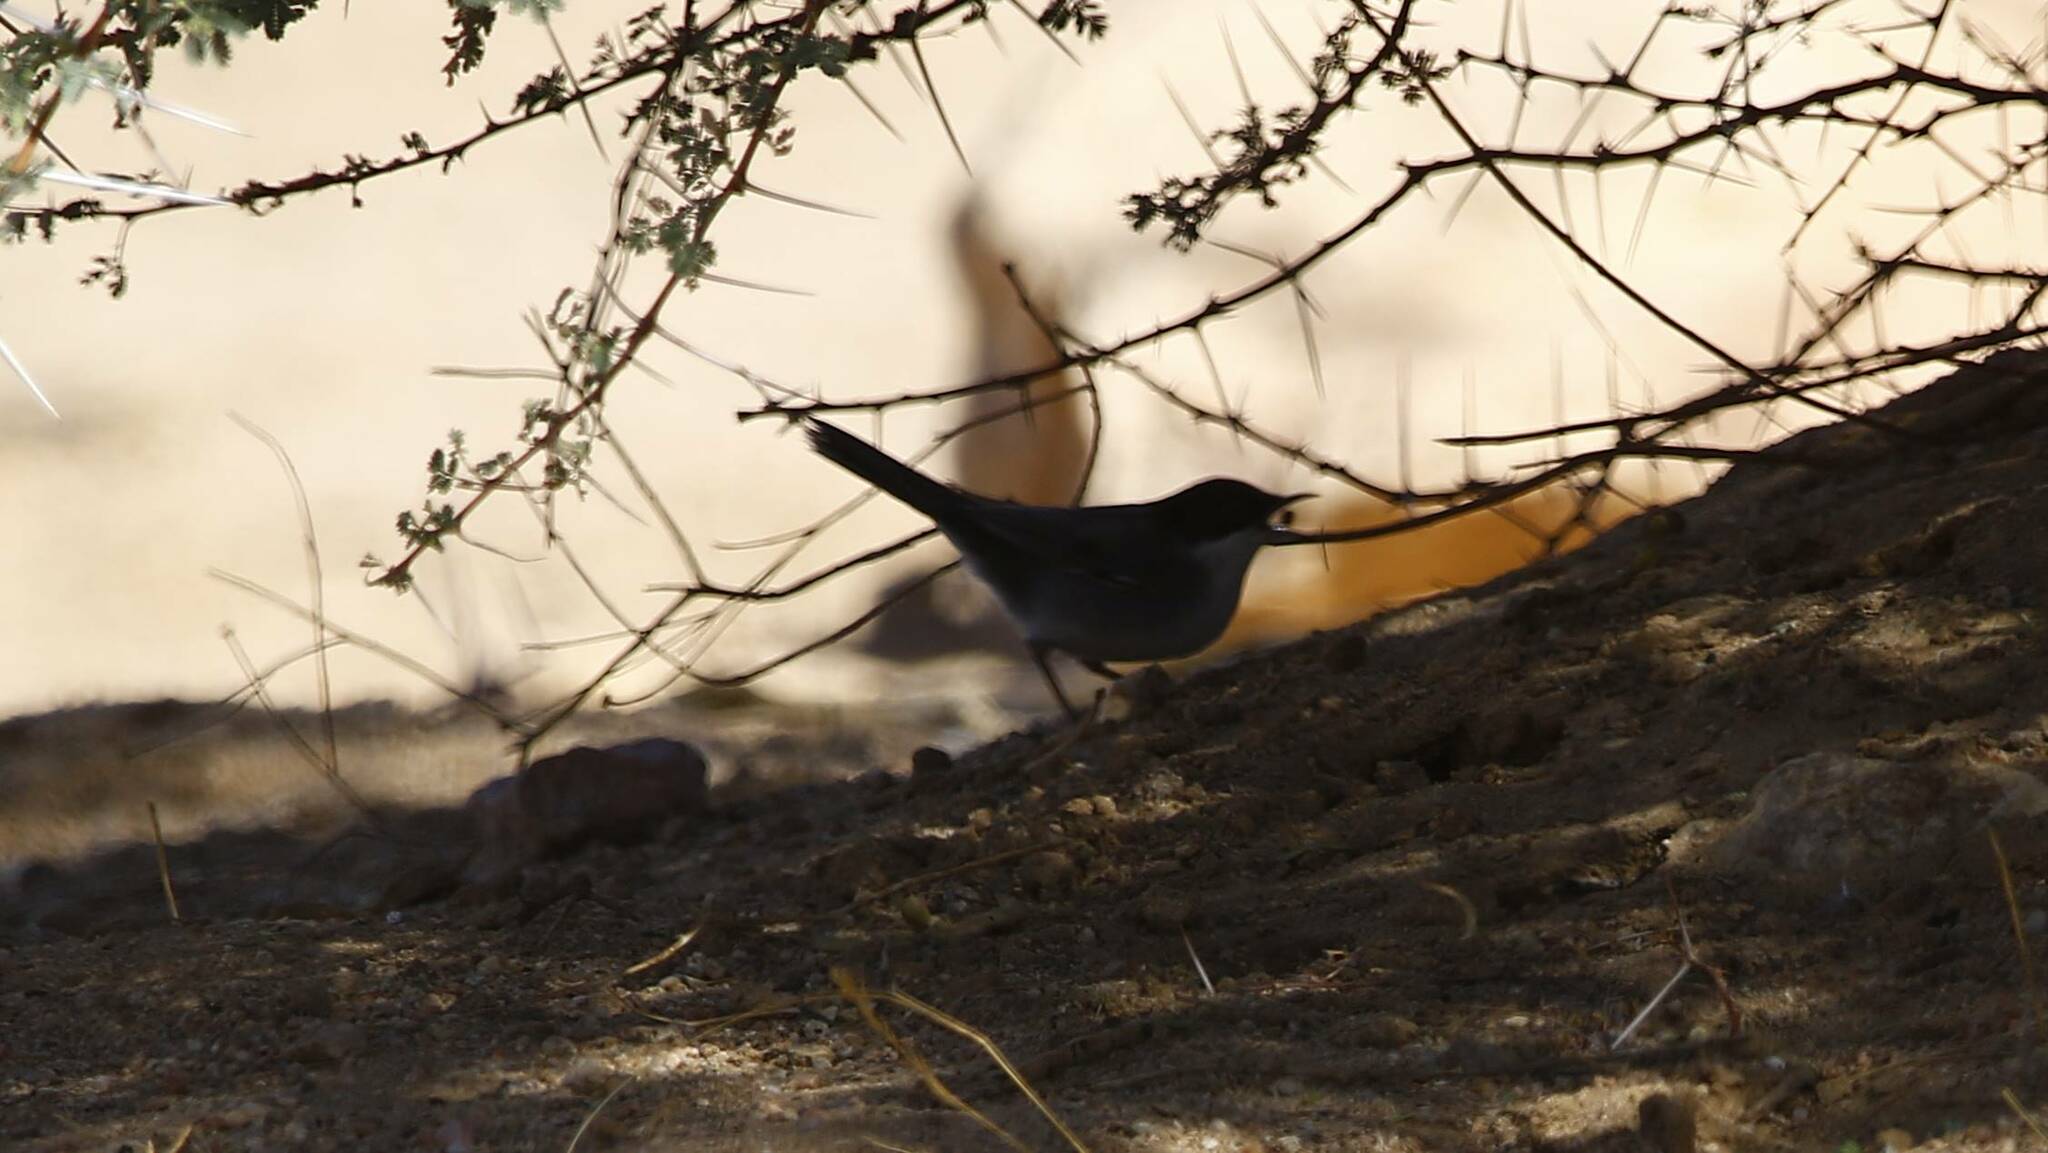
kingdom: Animalia
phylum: Chordata
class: Aves
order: Passeriformes
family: Sylviidae
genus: Curruca
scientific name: Curruca melanocephala
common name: Sardinian warbler
